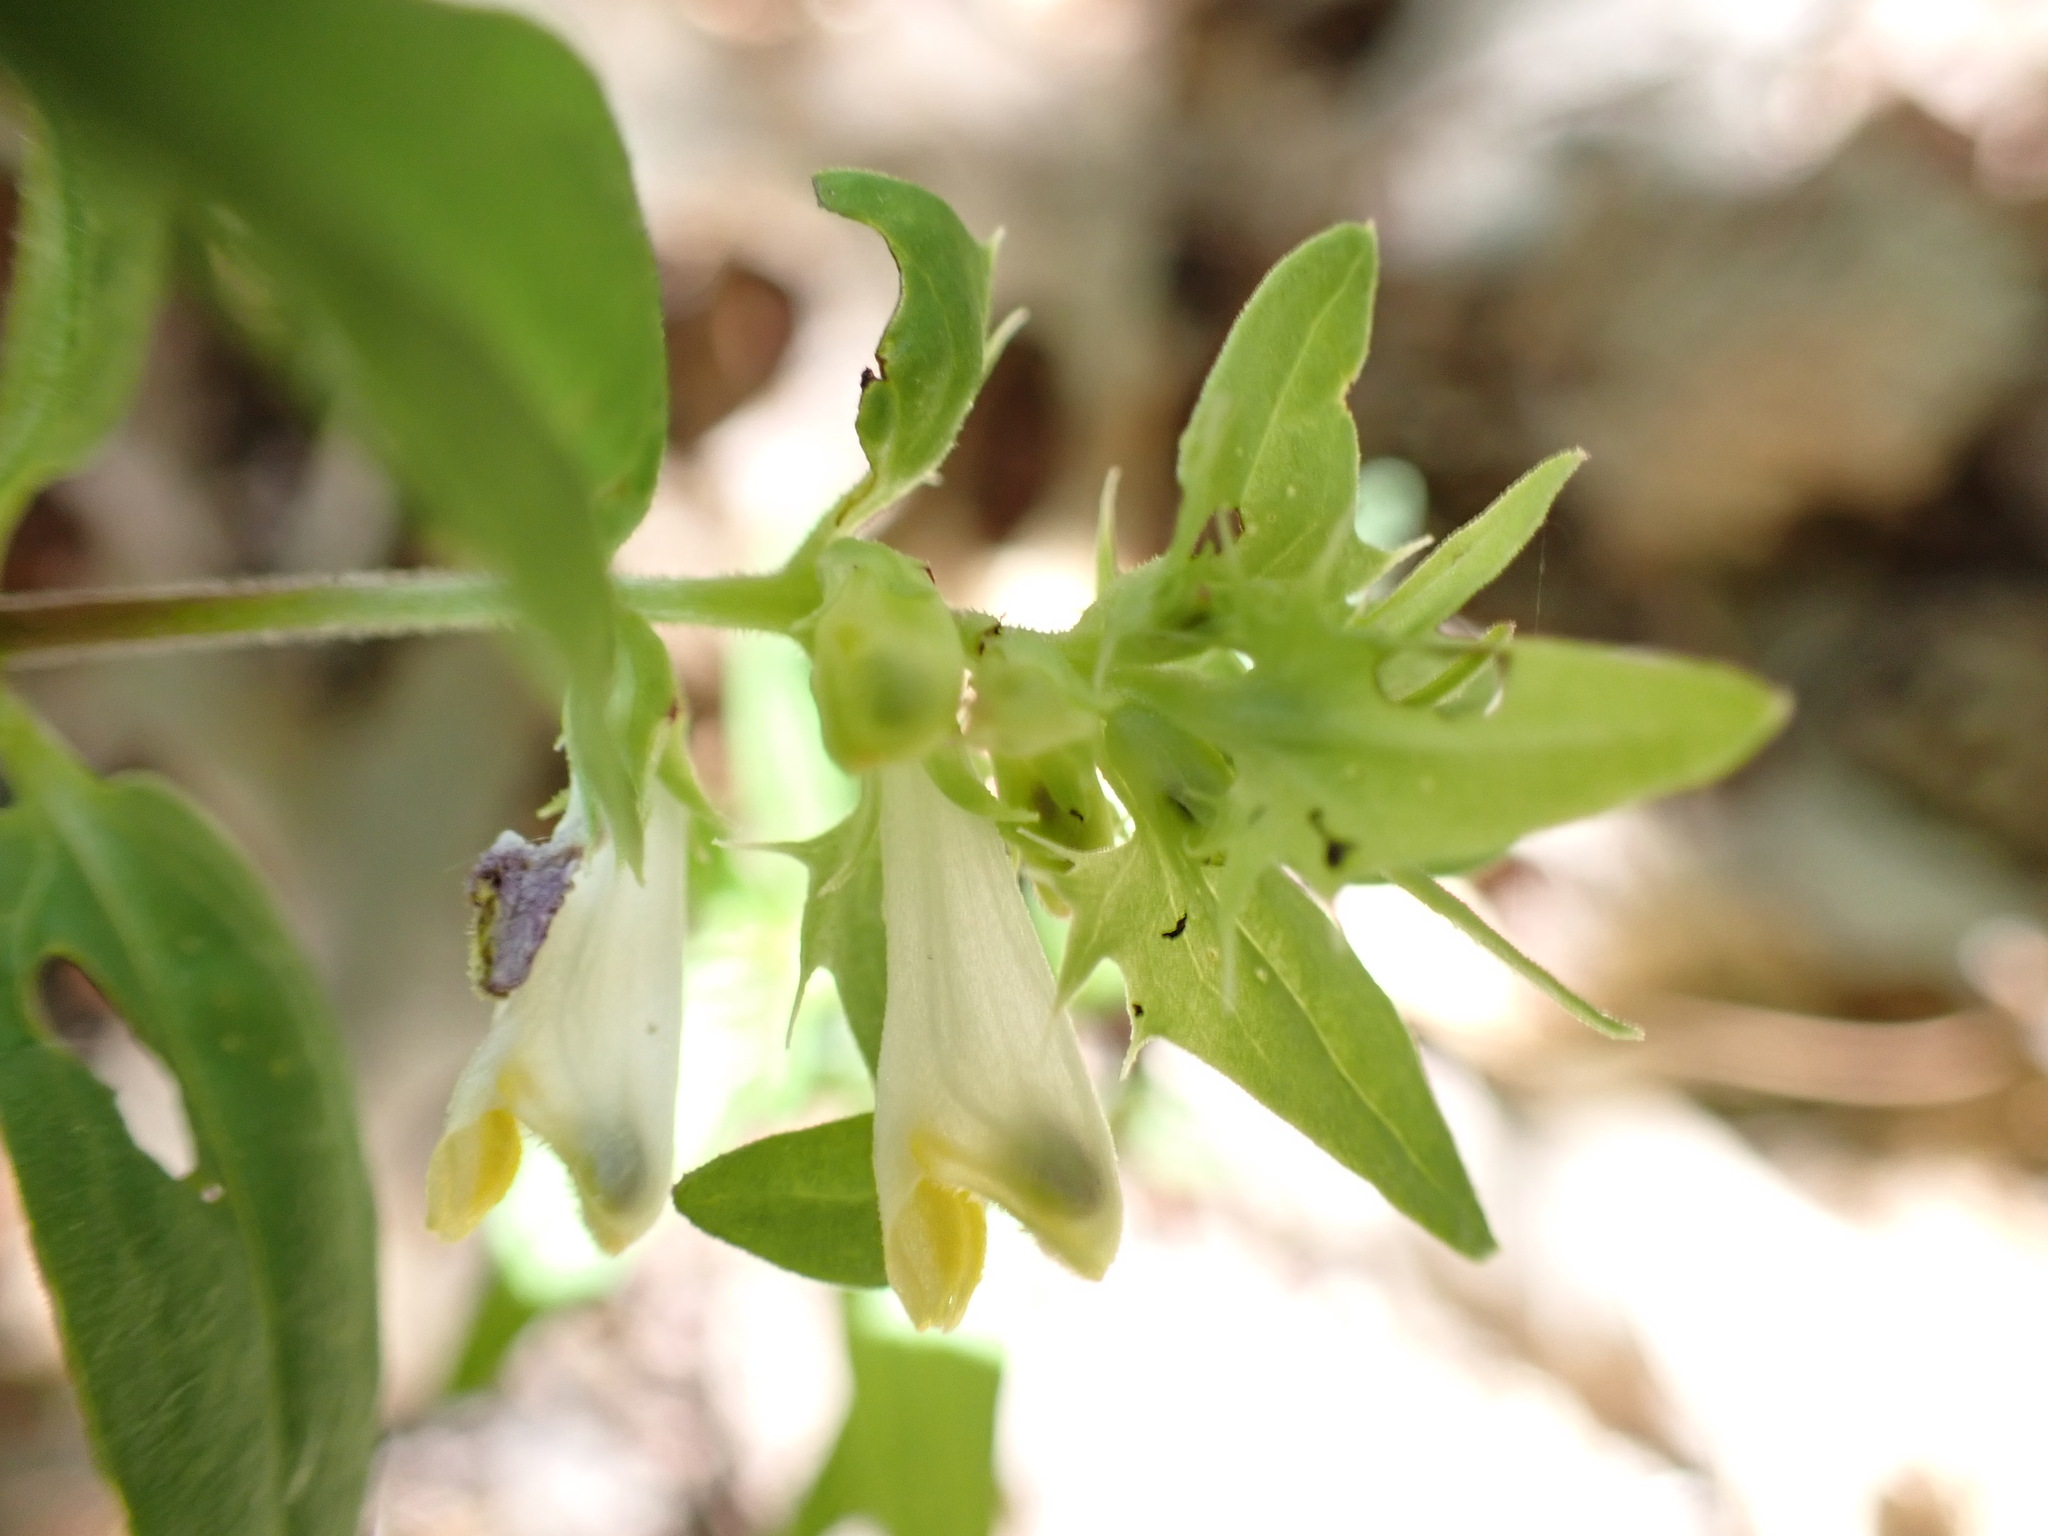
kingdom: Plantae
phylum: Tracheophyta
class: Magnoliopsida
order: Lamiales
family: Orobanchaceae
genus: Melampyrum
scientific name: Melampyrum lineare
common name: American cow-wheat
